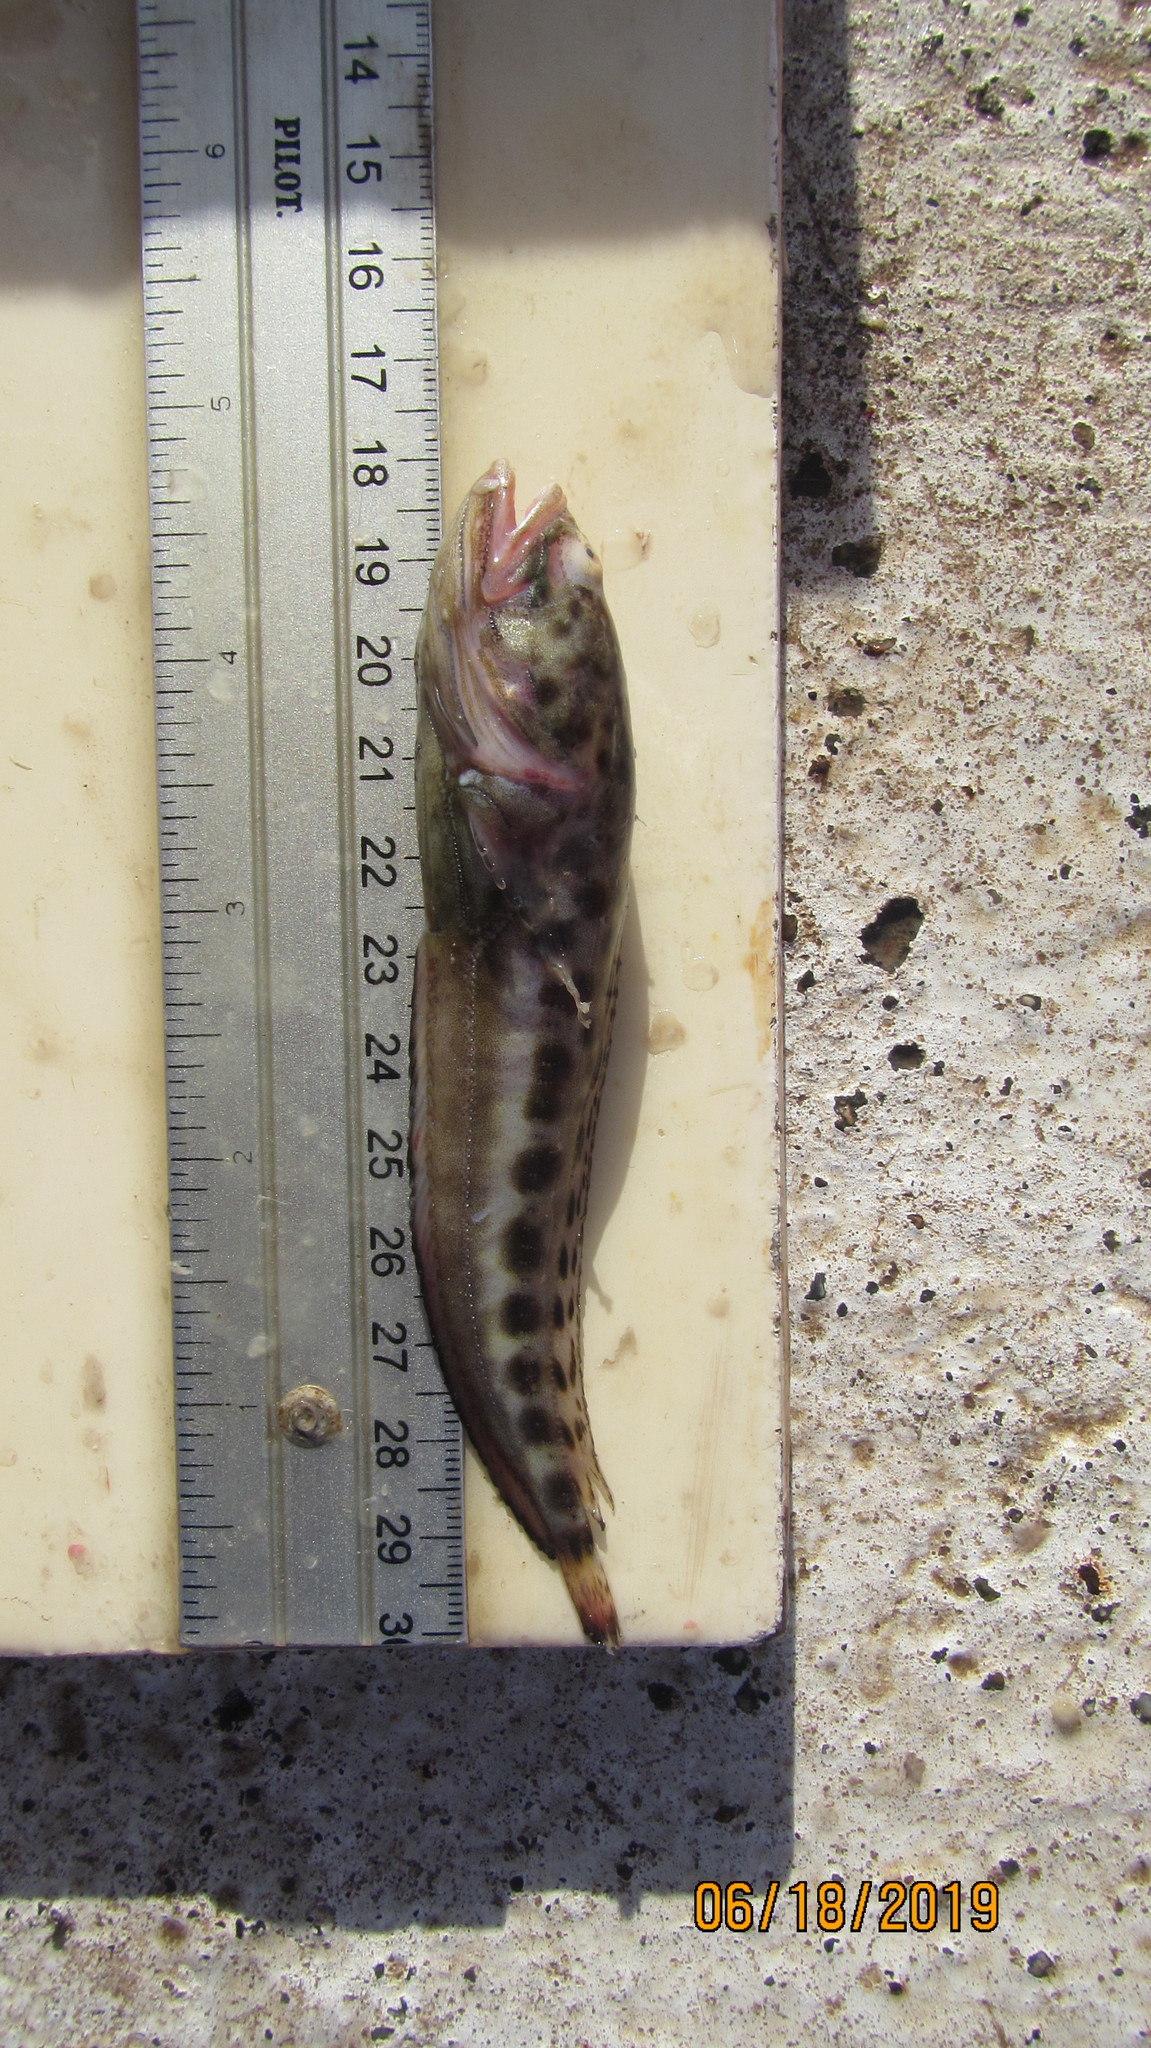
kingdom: Animalia
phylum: Chordata
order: Batrachoidiformes
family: Batrachoididae
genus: Porichthys
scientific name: Porichthys plectrodon
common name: Atlantic midshipman
